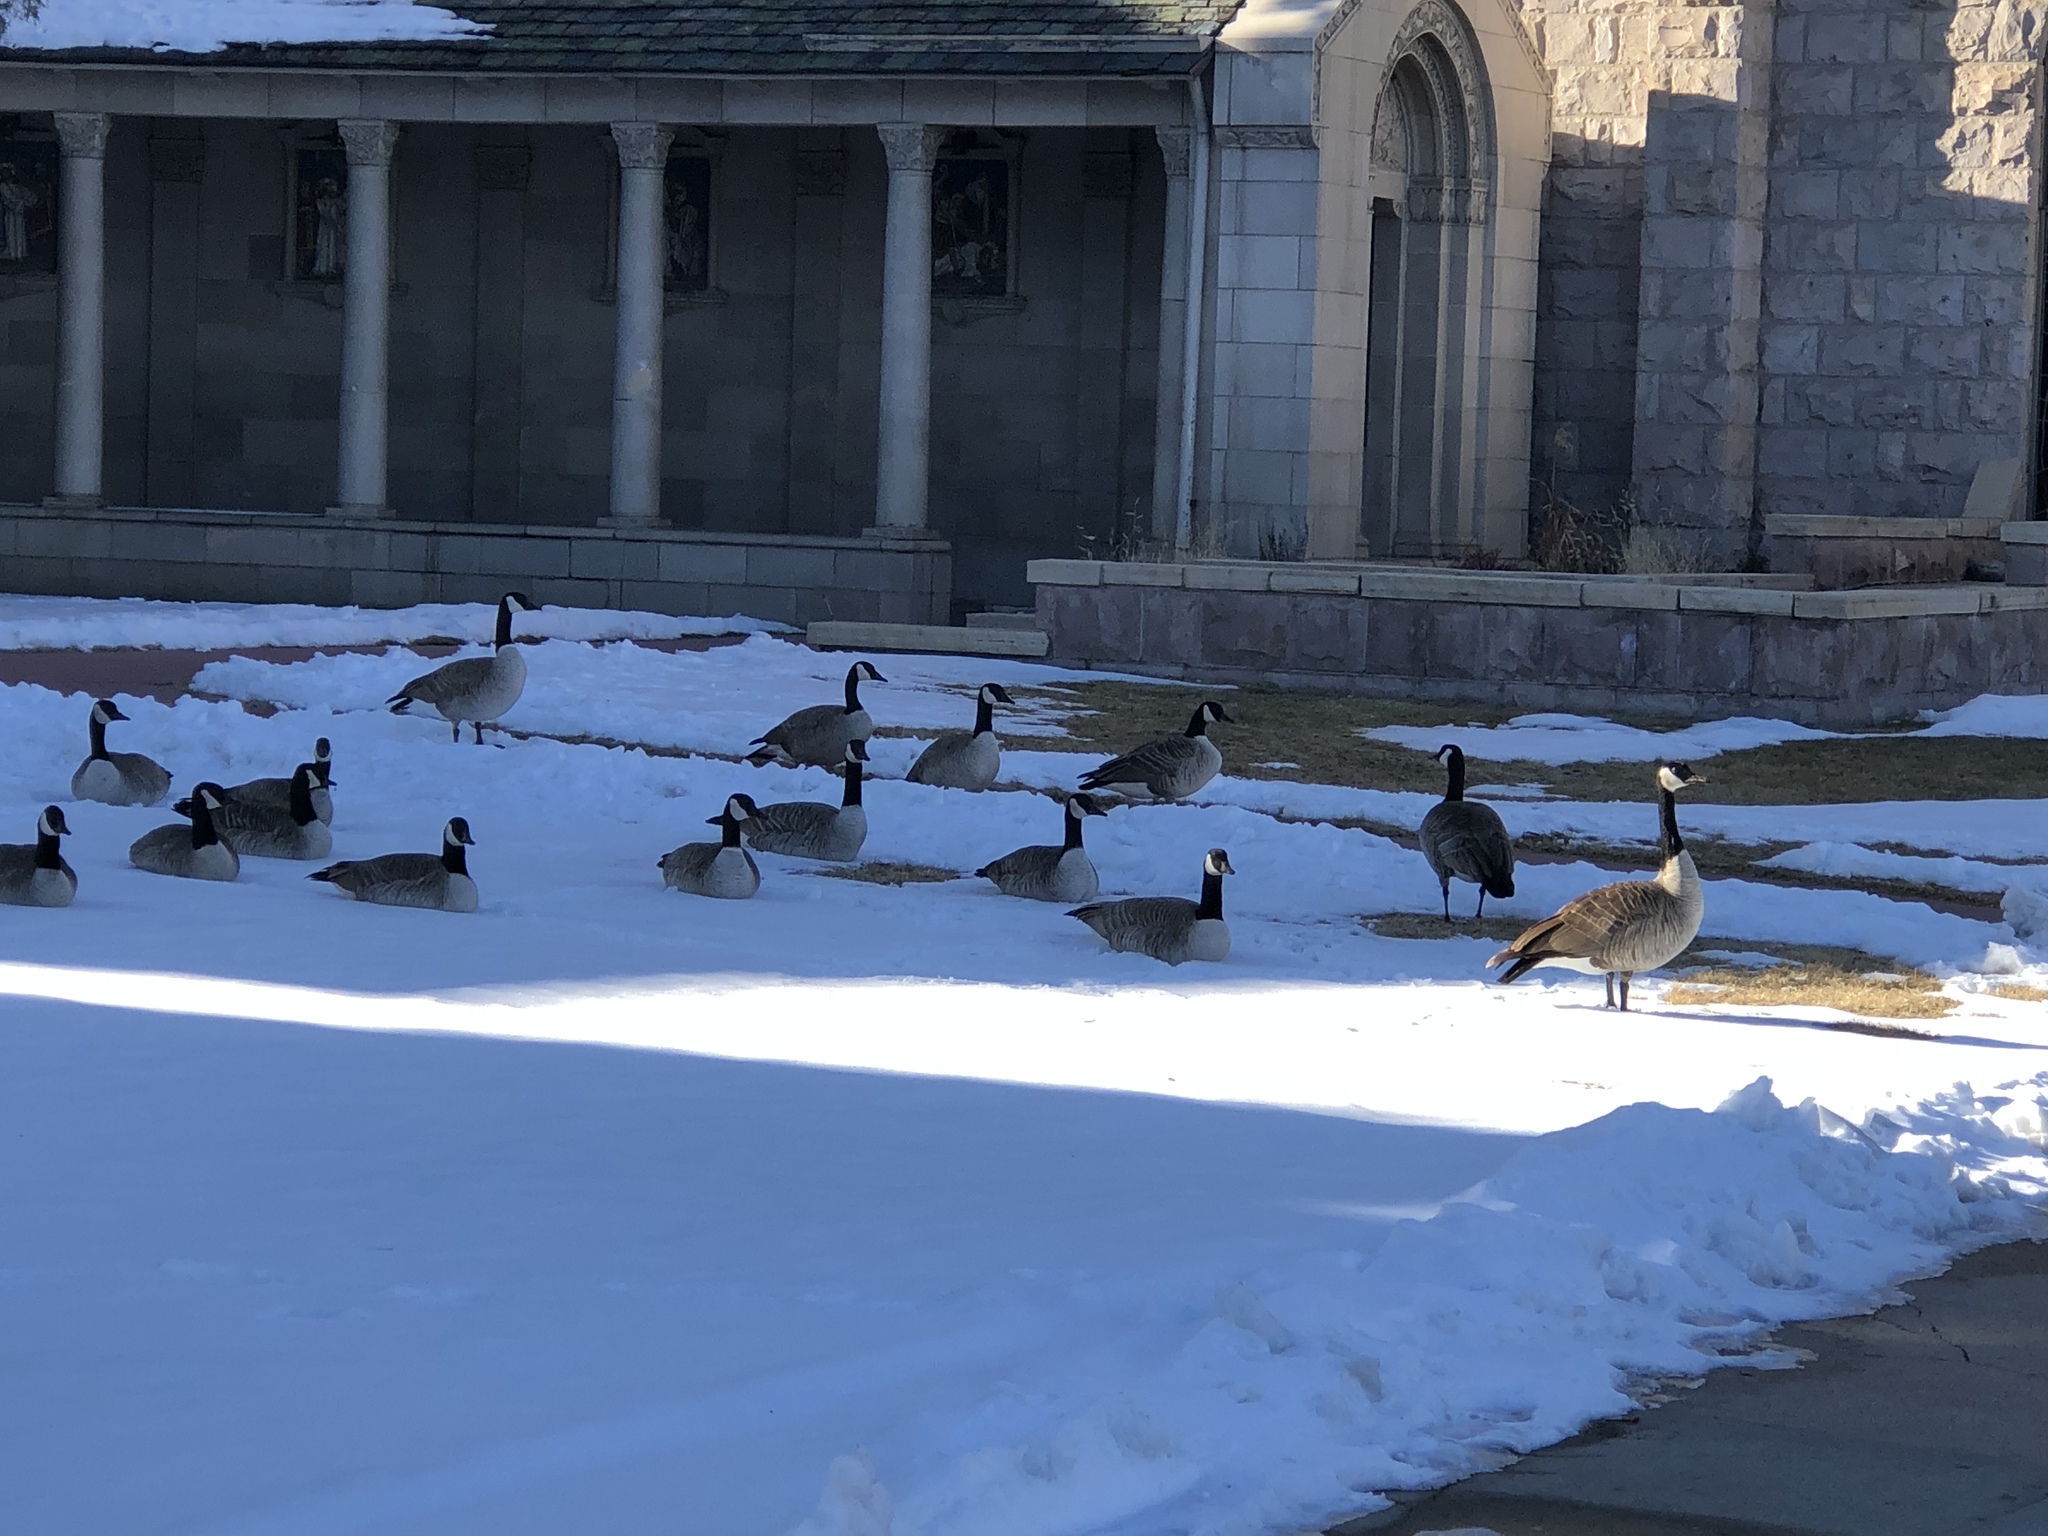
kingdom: Animalia
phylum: Chordata
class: Aves
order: Anseriformes
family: Anatidae
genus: Branta
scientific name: Branta canadensis
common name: Canada goose
